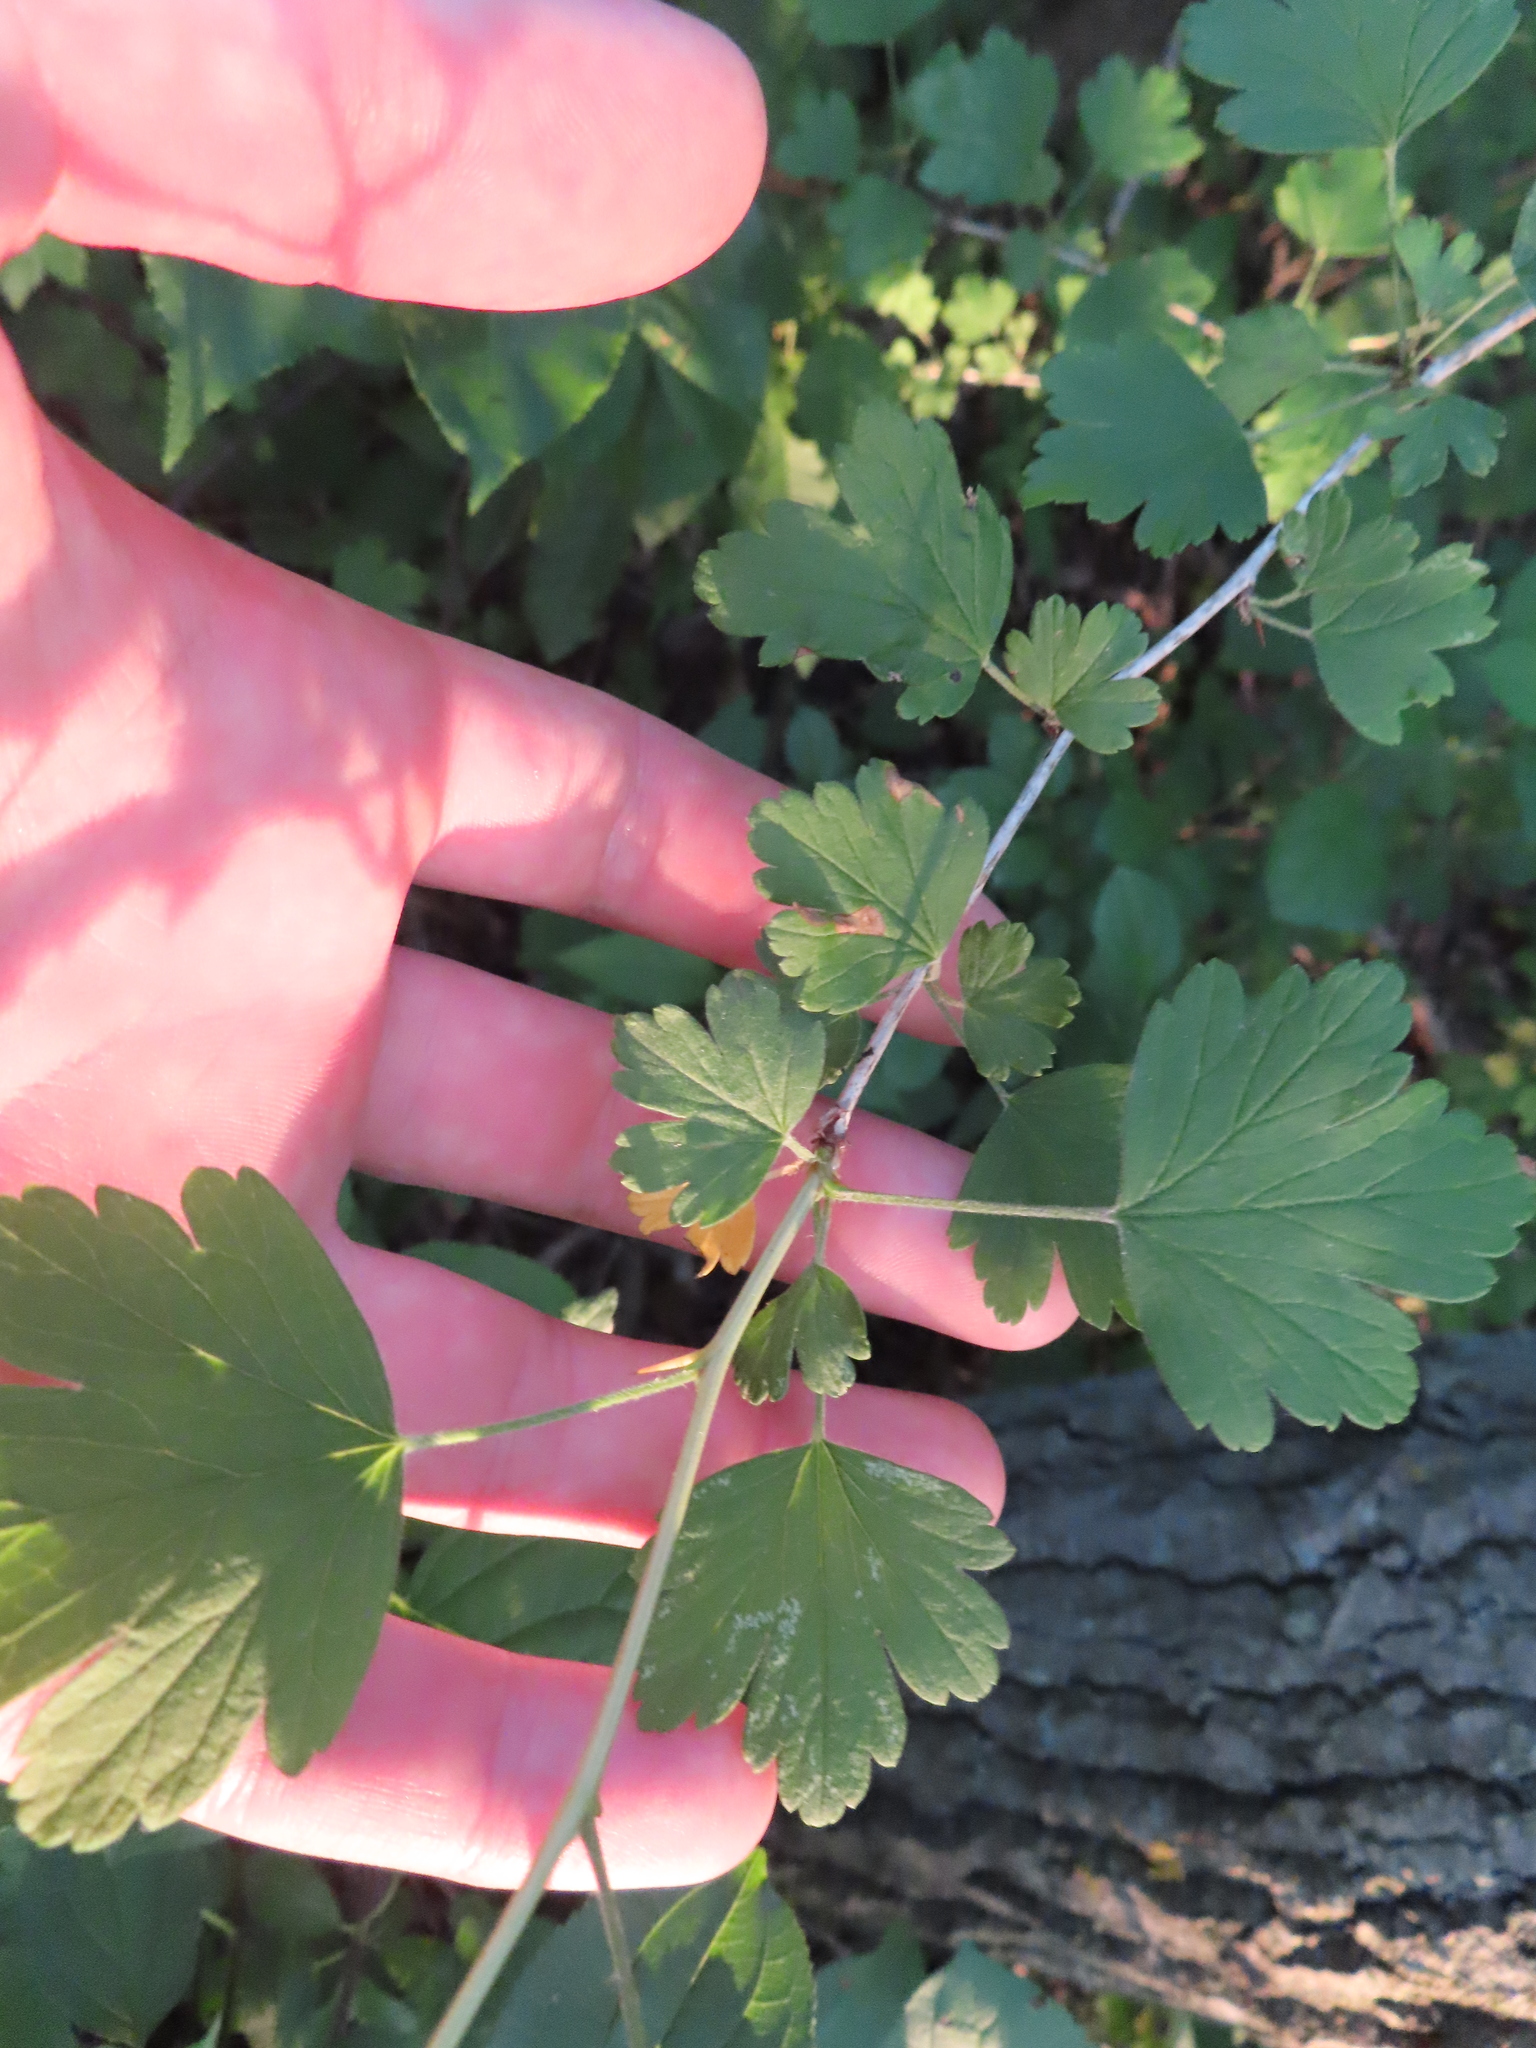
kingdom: Plantae
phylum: Tracheophyta
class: Magnoliopsida
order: Saxifragales
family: Grossulariaceae
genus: Ribes
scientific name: Ribes missouriense
